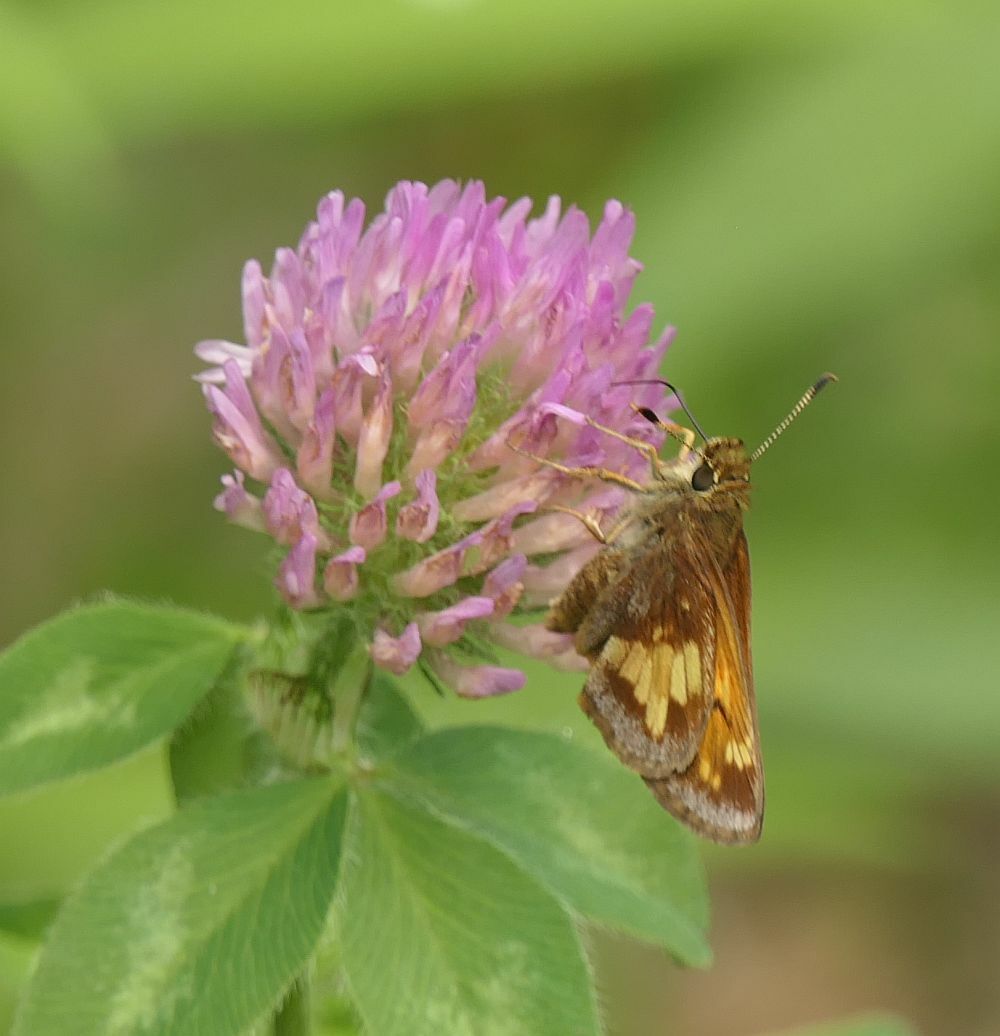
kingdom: Animalia
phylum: Arthropoda
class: Insecta
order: Lepidoptera
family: Hesperiidae
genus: Lon
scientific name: Lon hobomok
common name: Hobomok skipper
